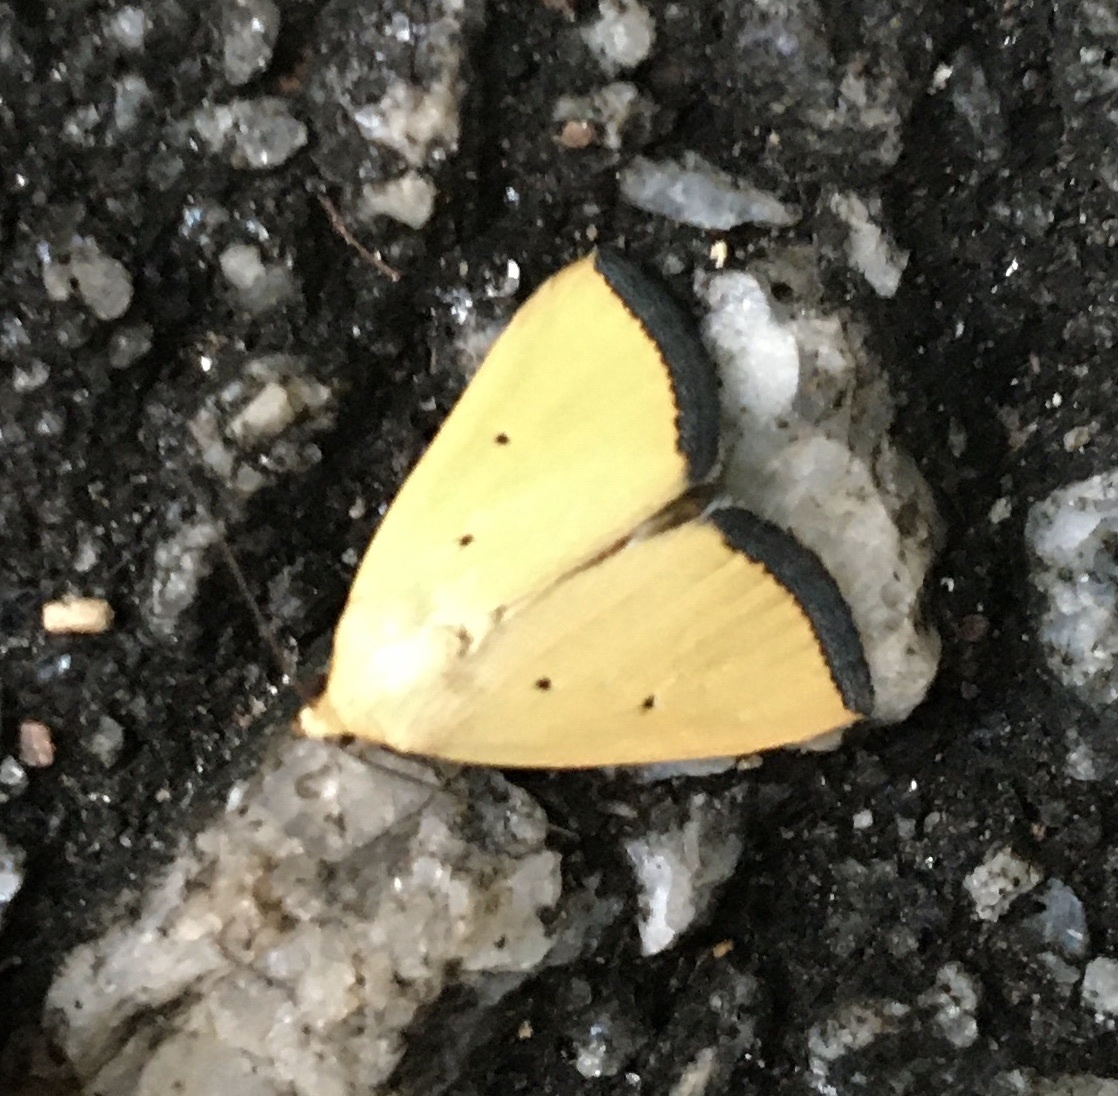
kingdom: Animalia
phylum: Arthropoda
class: Insecta
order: Lepidoptera
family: Noctuidae
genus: Marimatha
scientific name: Marimatha nigrofimbria
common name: Black-bordered lemon moth
